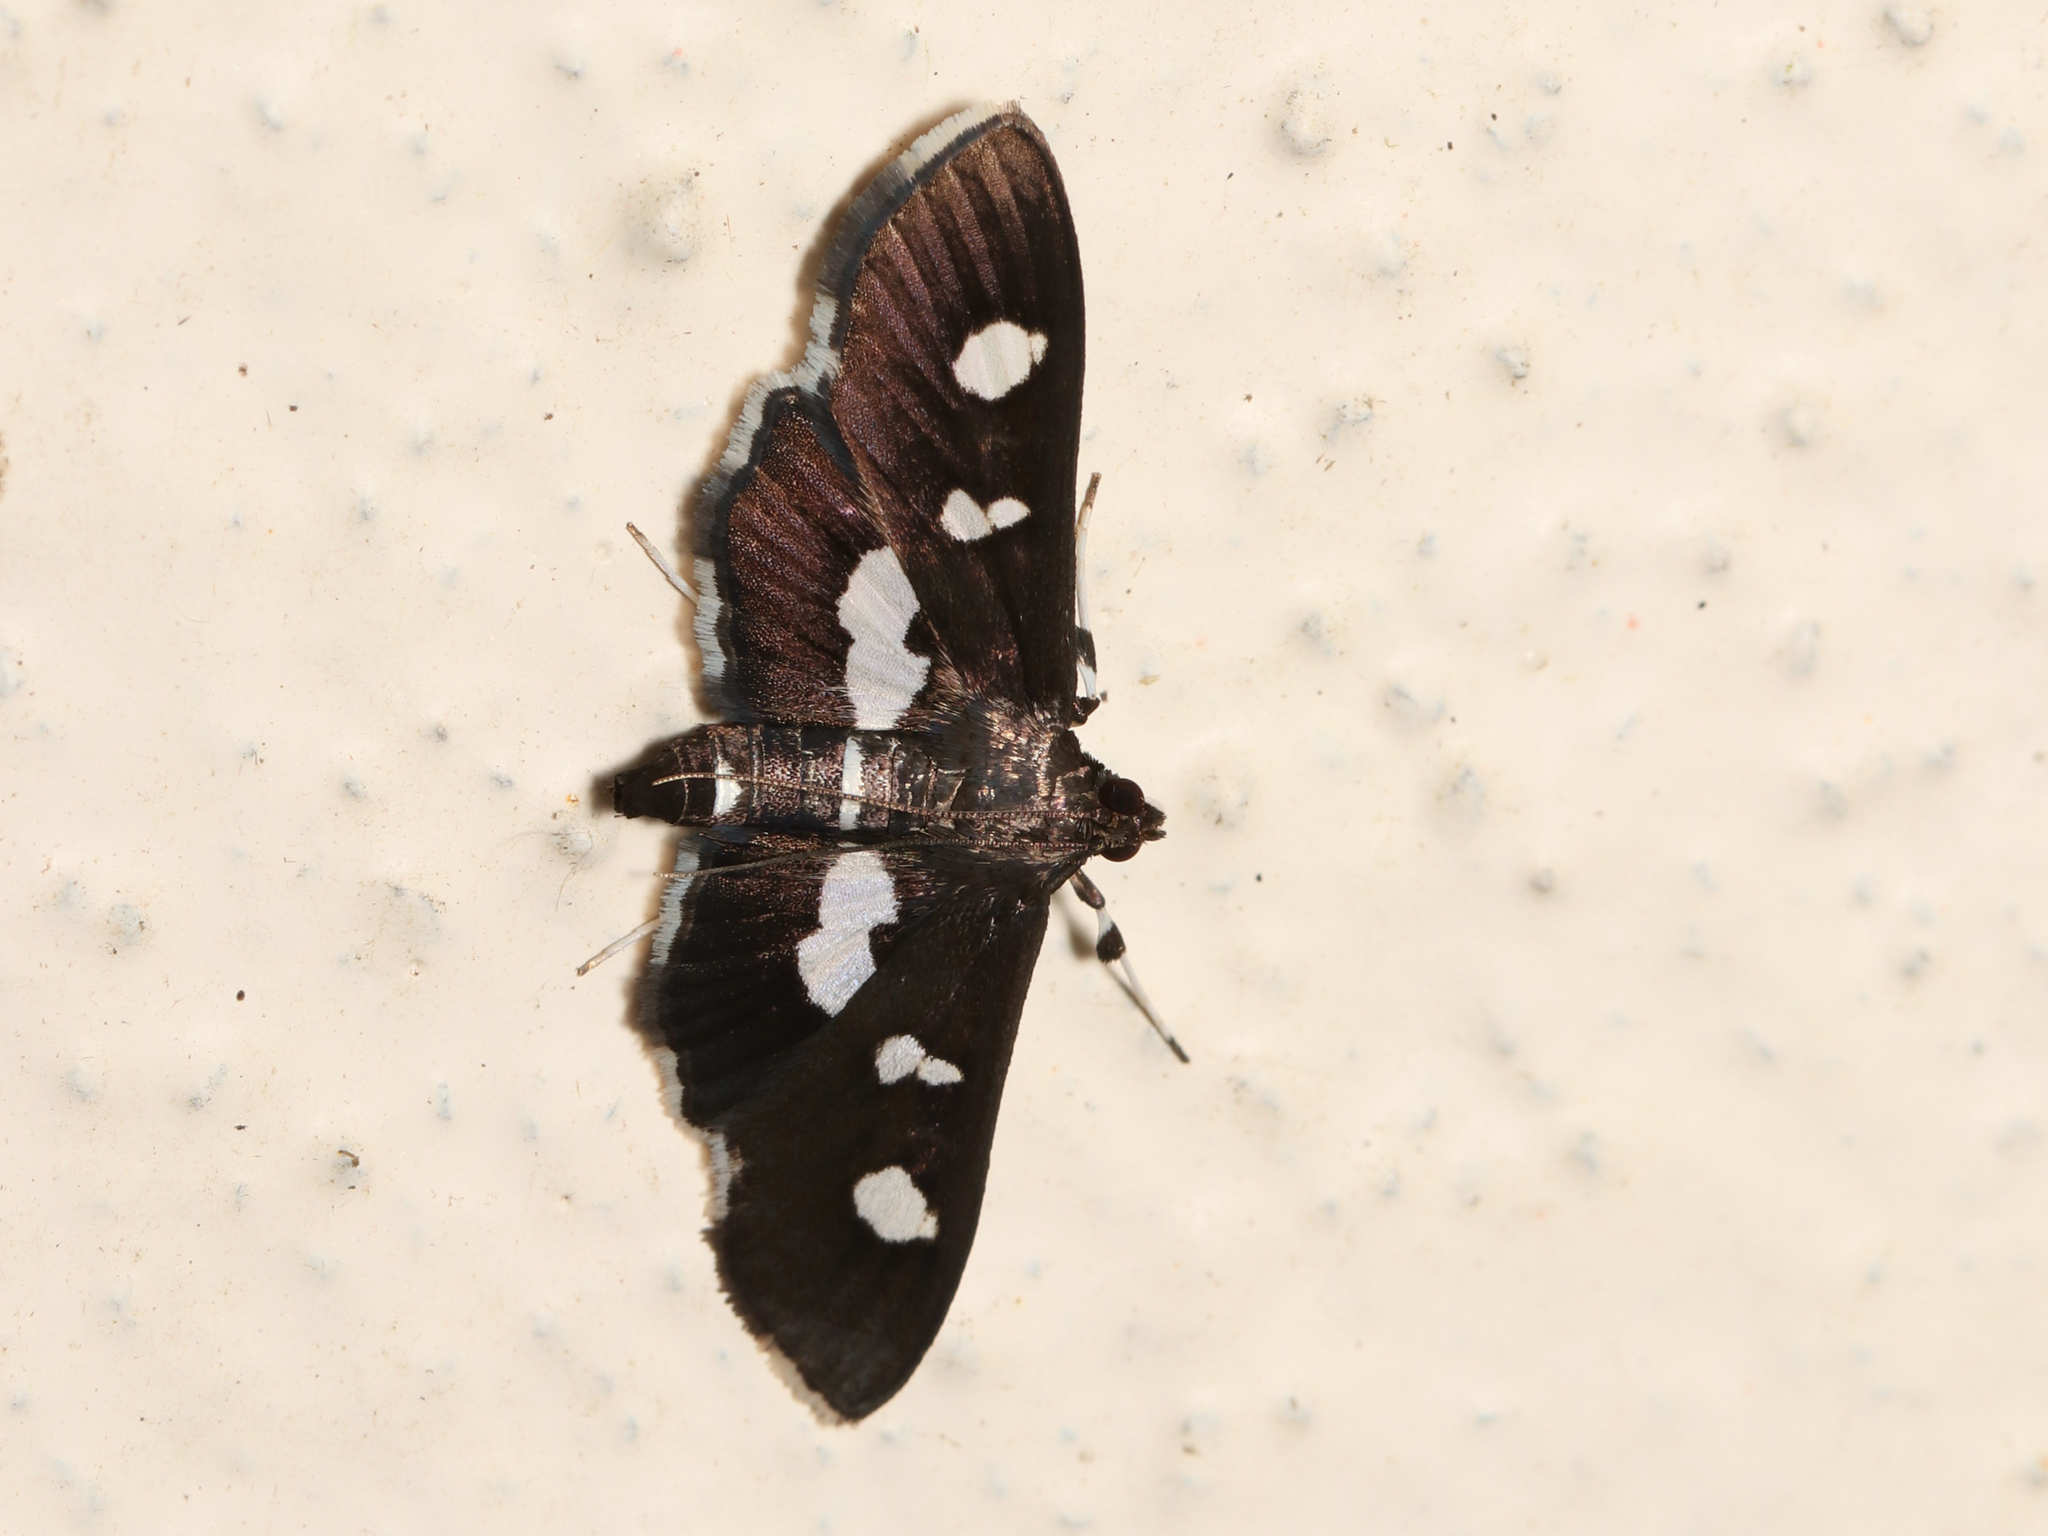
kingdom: Animalia
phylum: Arthropoda
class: Insecta
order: Lepidoptera
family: Crambidae
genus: Desmia
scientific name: Desmia
